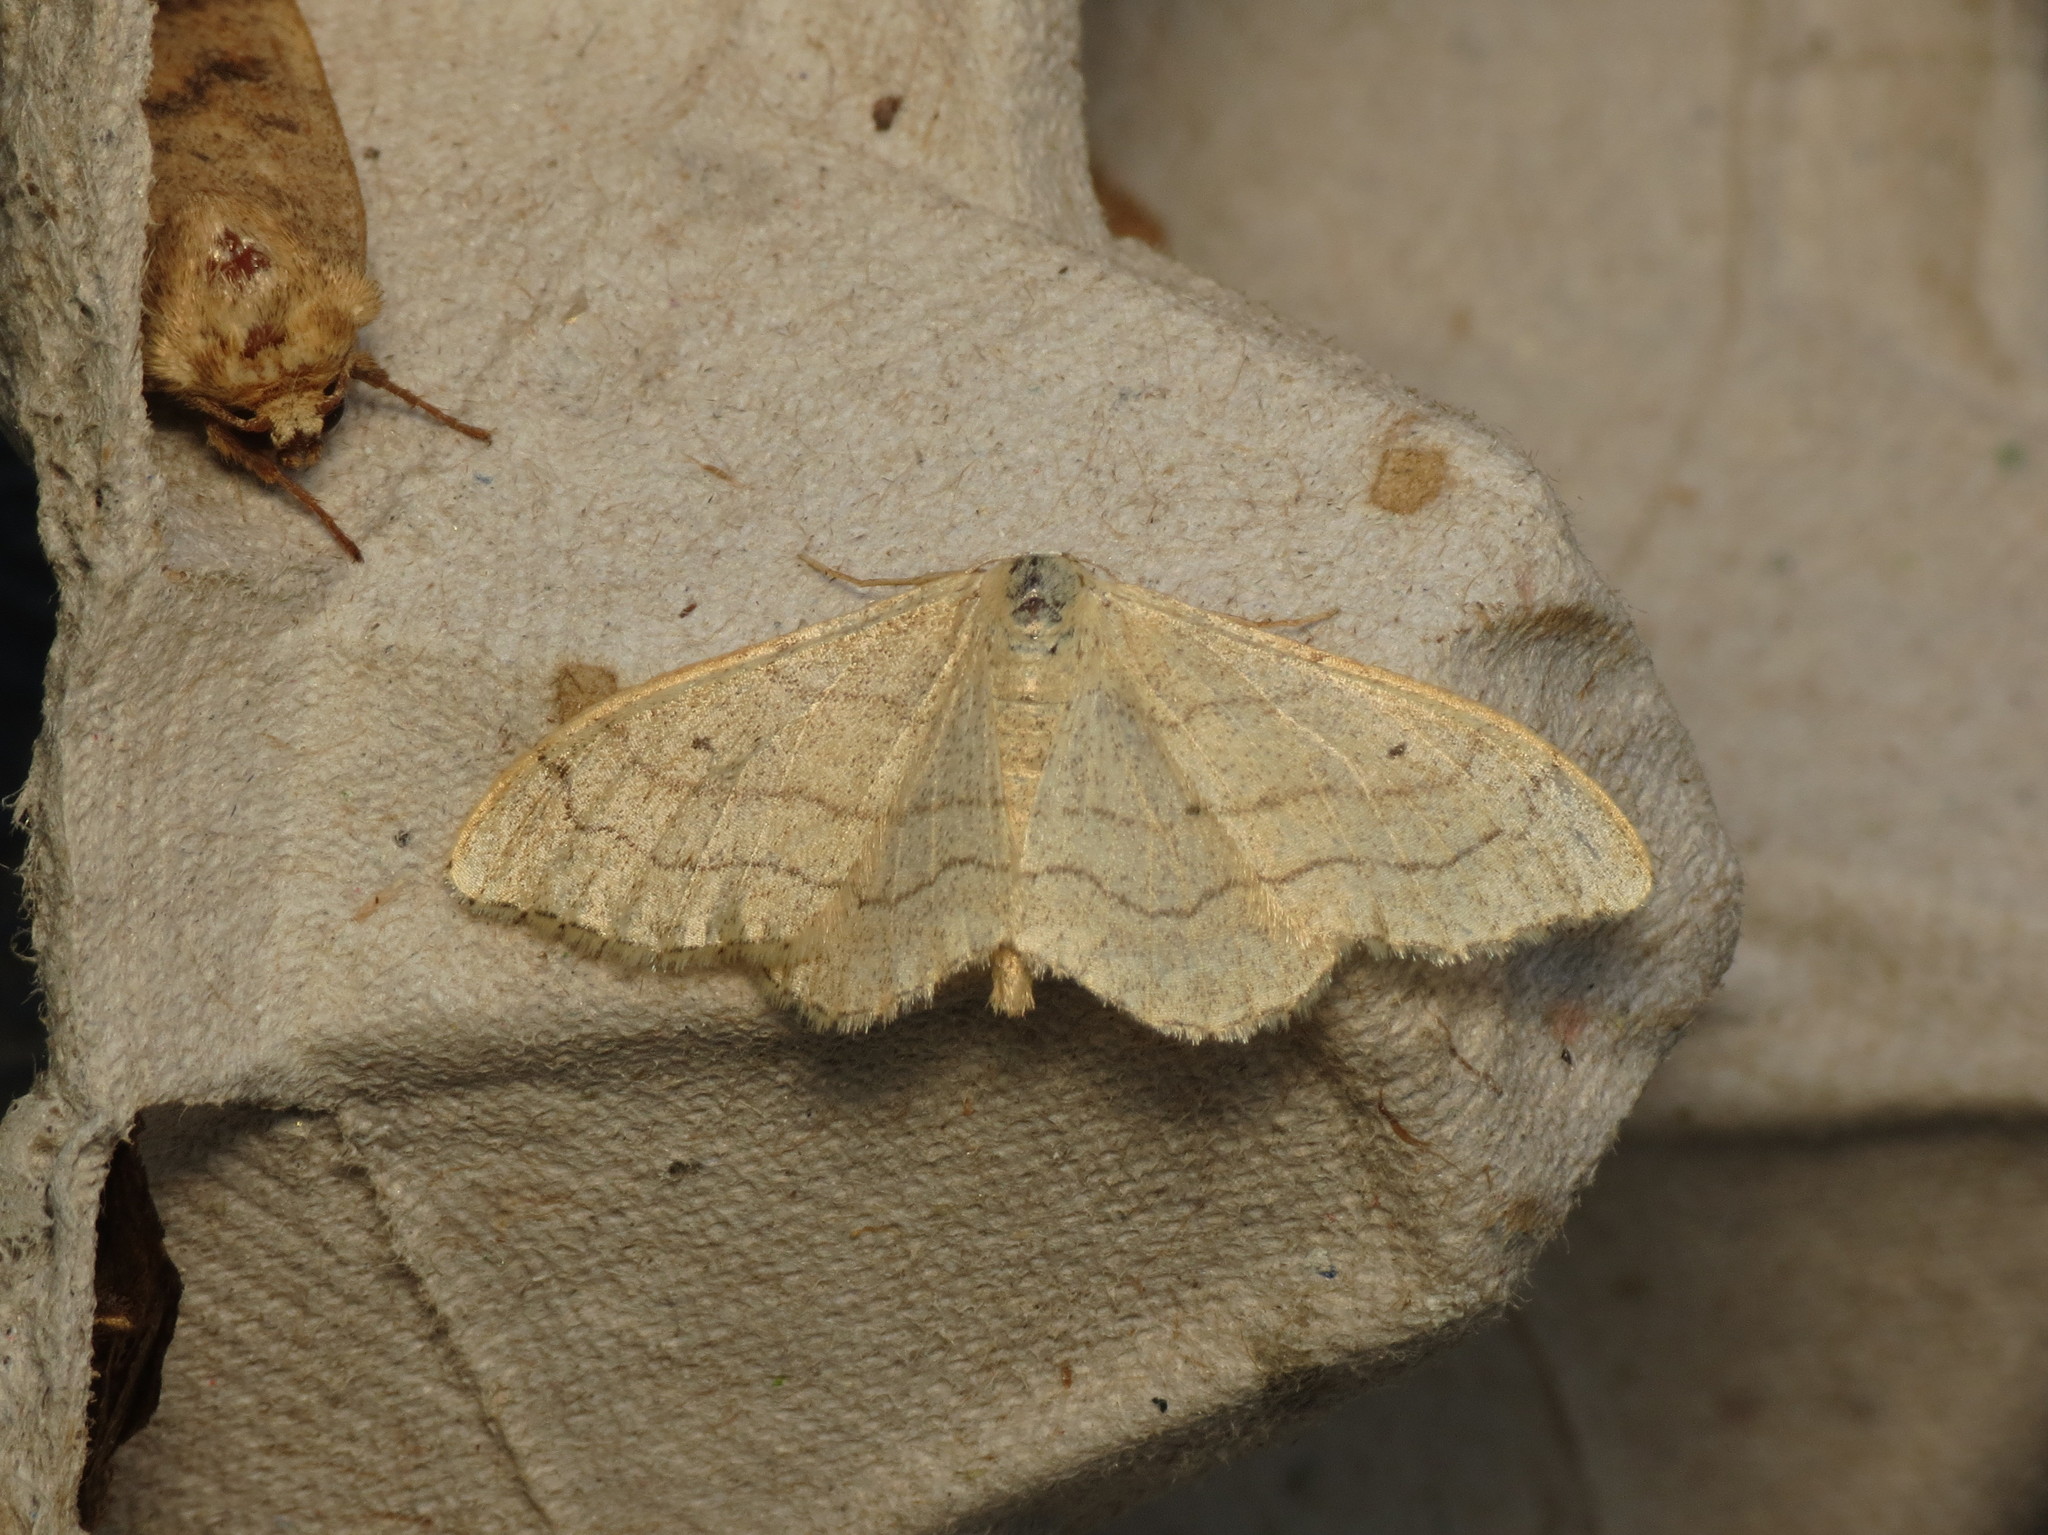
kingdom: Animalia
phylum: Arthropoda
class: Insecta
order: Lepidoptera
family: Geometridae
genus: Idaea
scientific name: Idaea aversata
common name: Riband wave
